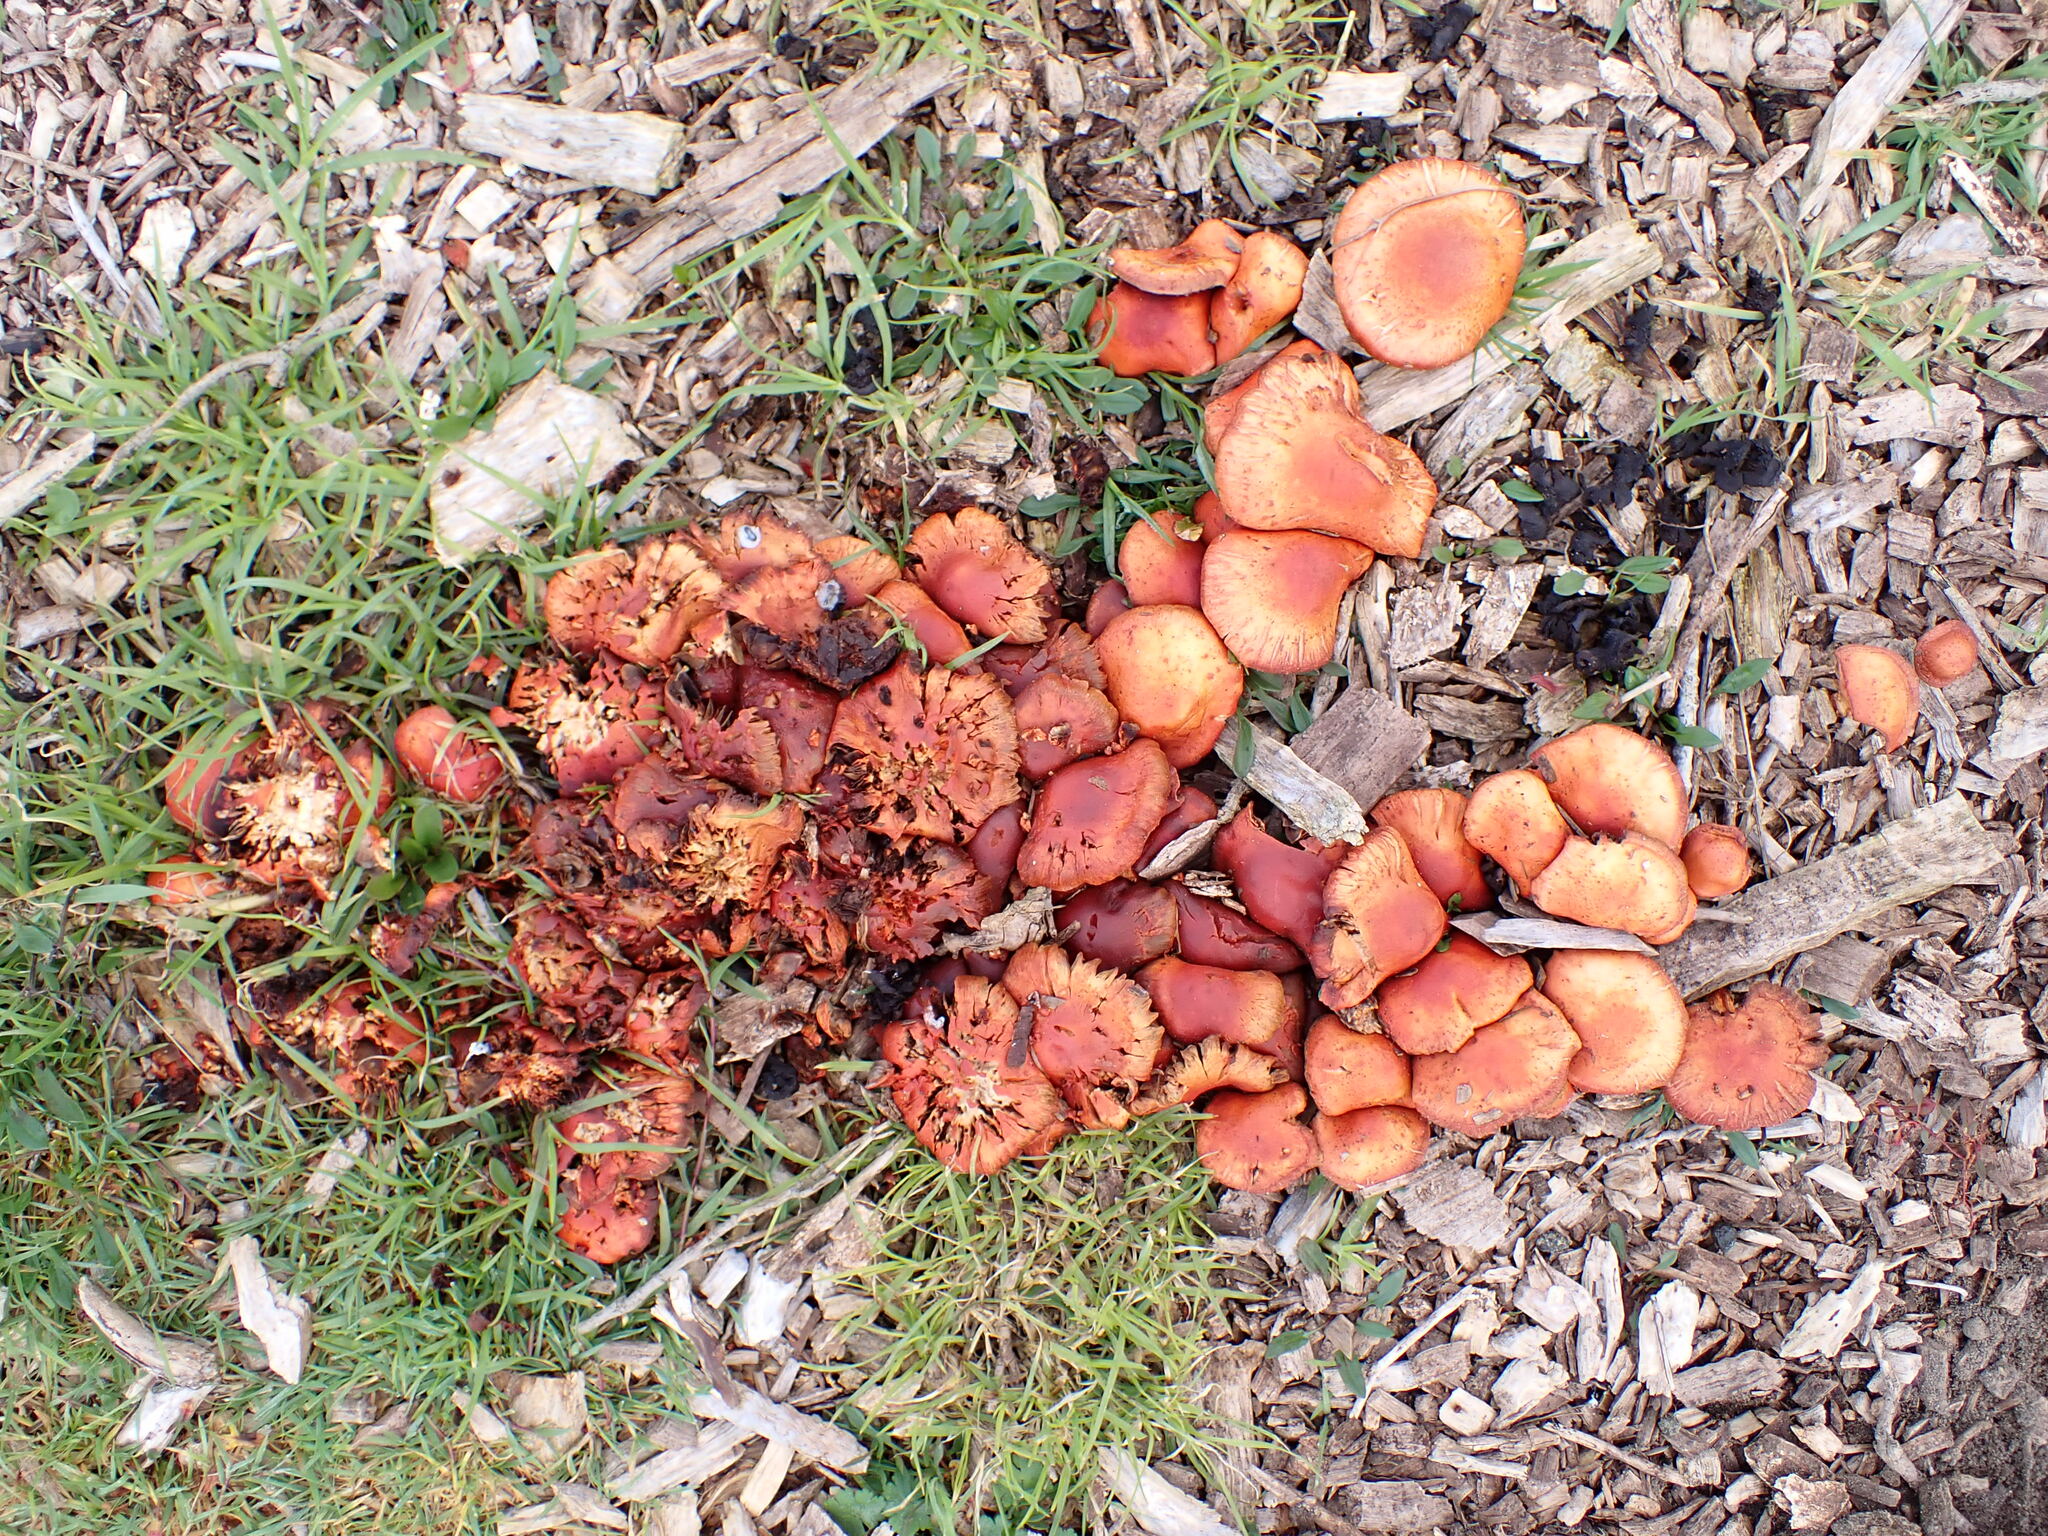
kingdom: Fungi
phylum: Basidiomycota
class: Agaricomycetes
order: Agaricales
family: Strophariaceae
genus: Leratiomyces
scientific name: Leratiomyces ceres
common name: Redlead roundhead
